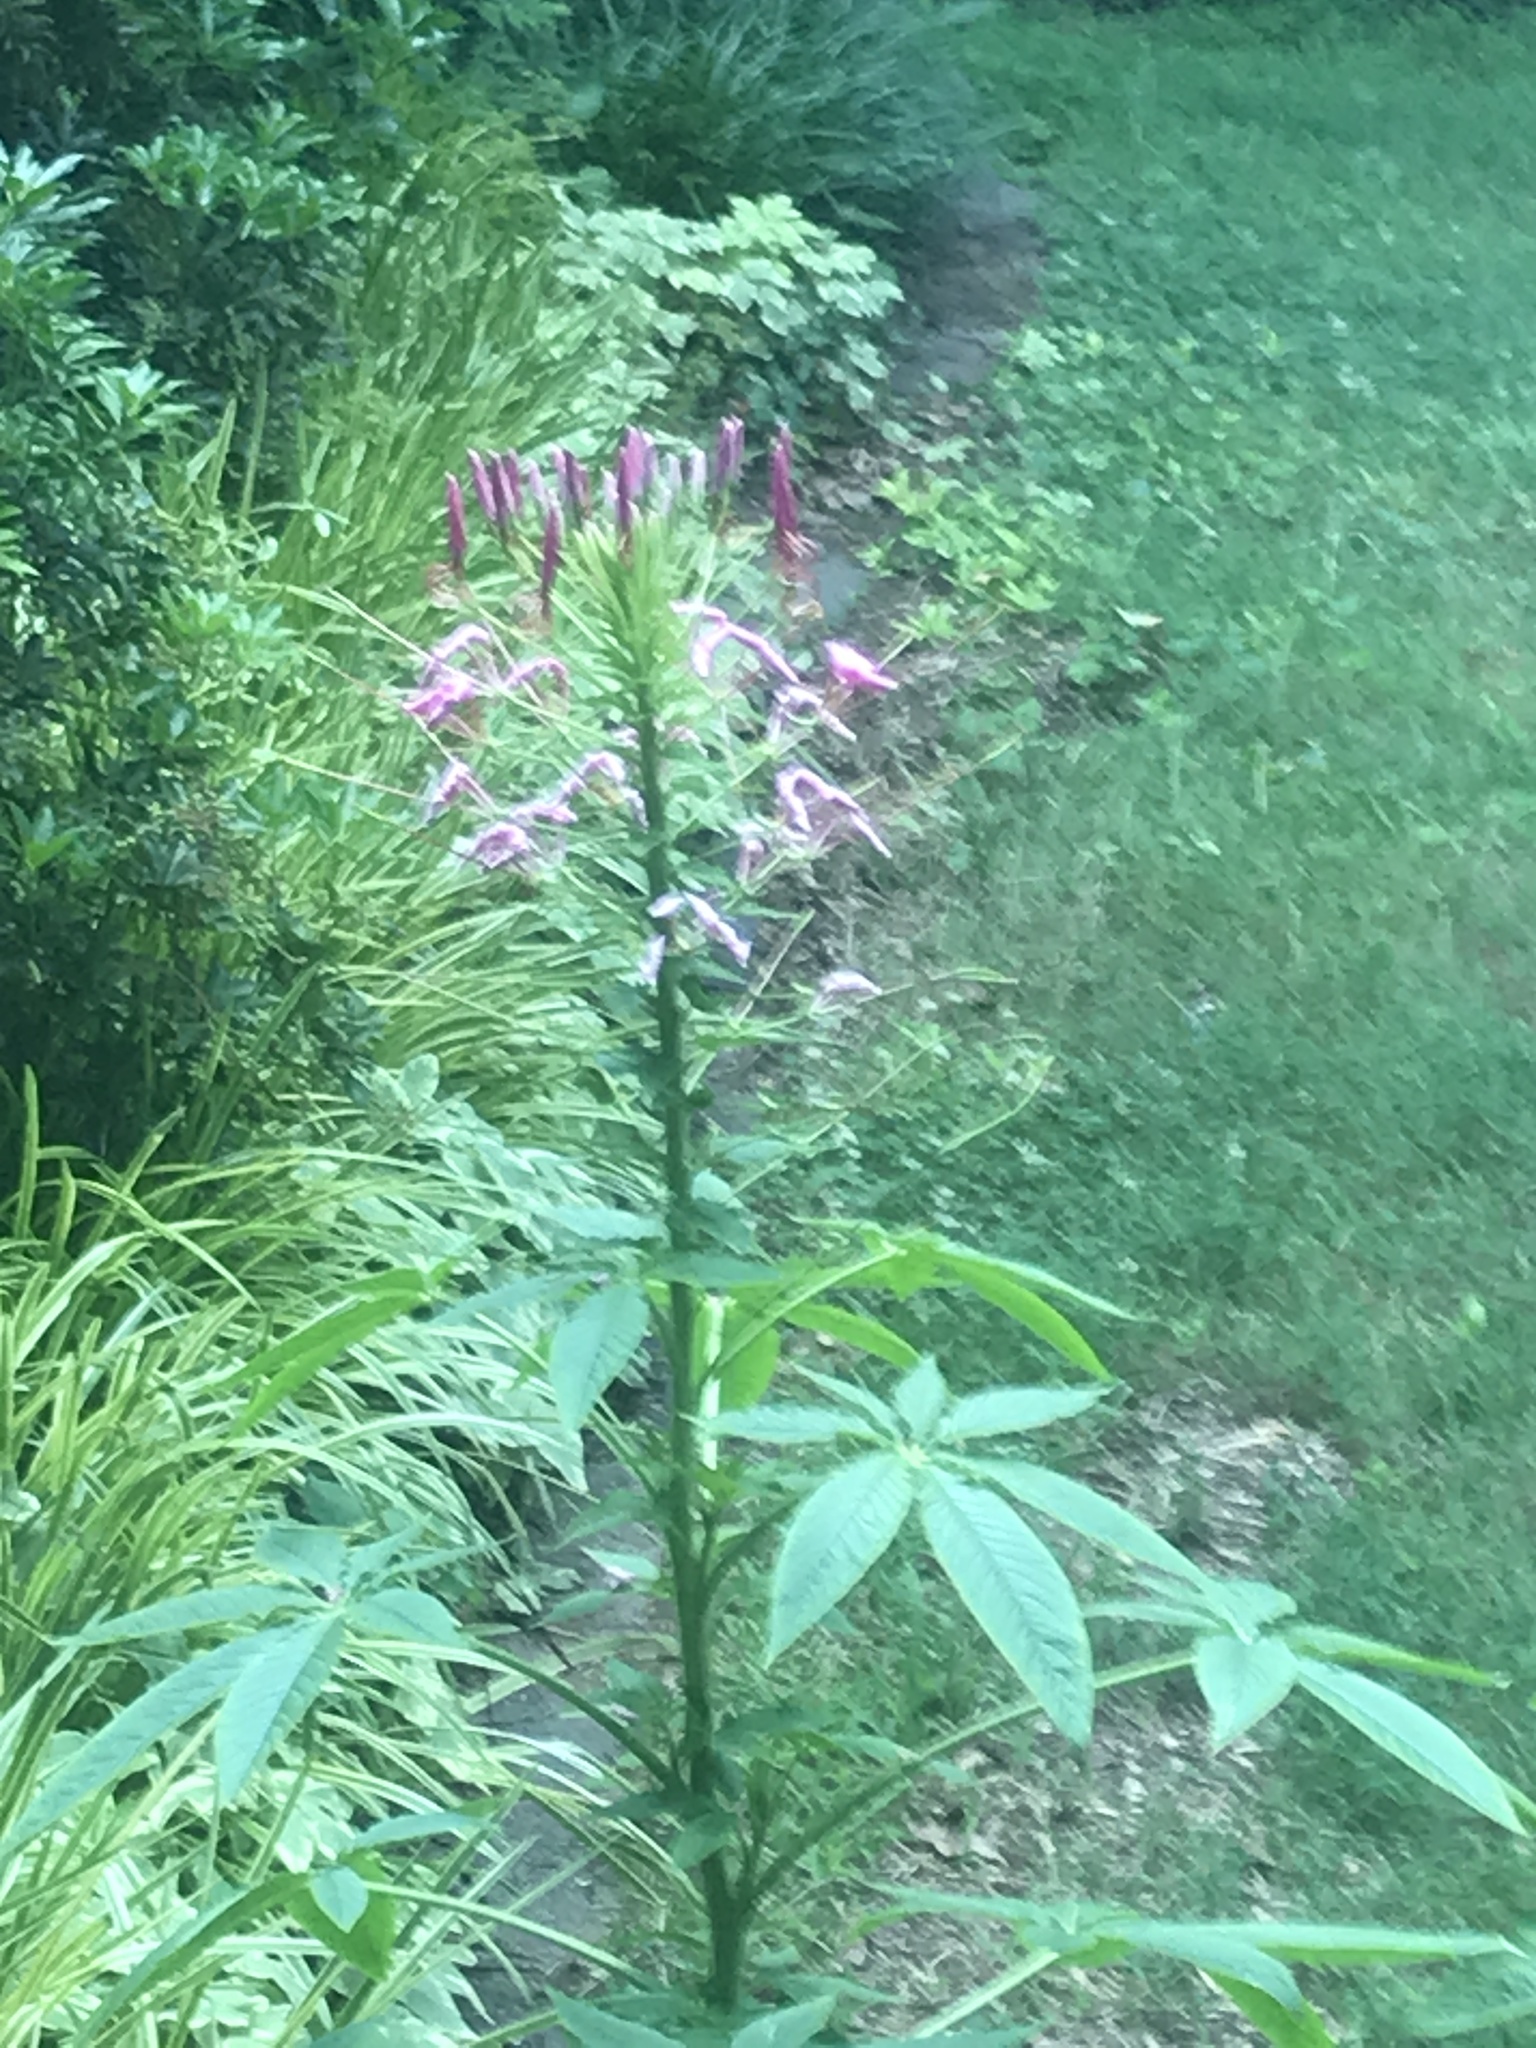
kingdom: Plantae
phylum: Tracheophyta
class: Magnoliopsida
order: Brassicales
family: Cleomaceae
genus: Tarenaya
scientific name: Tarenaya houtteana
